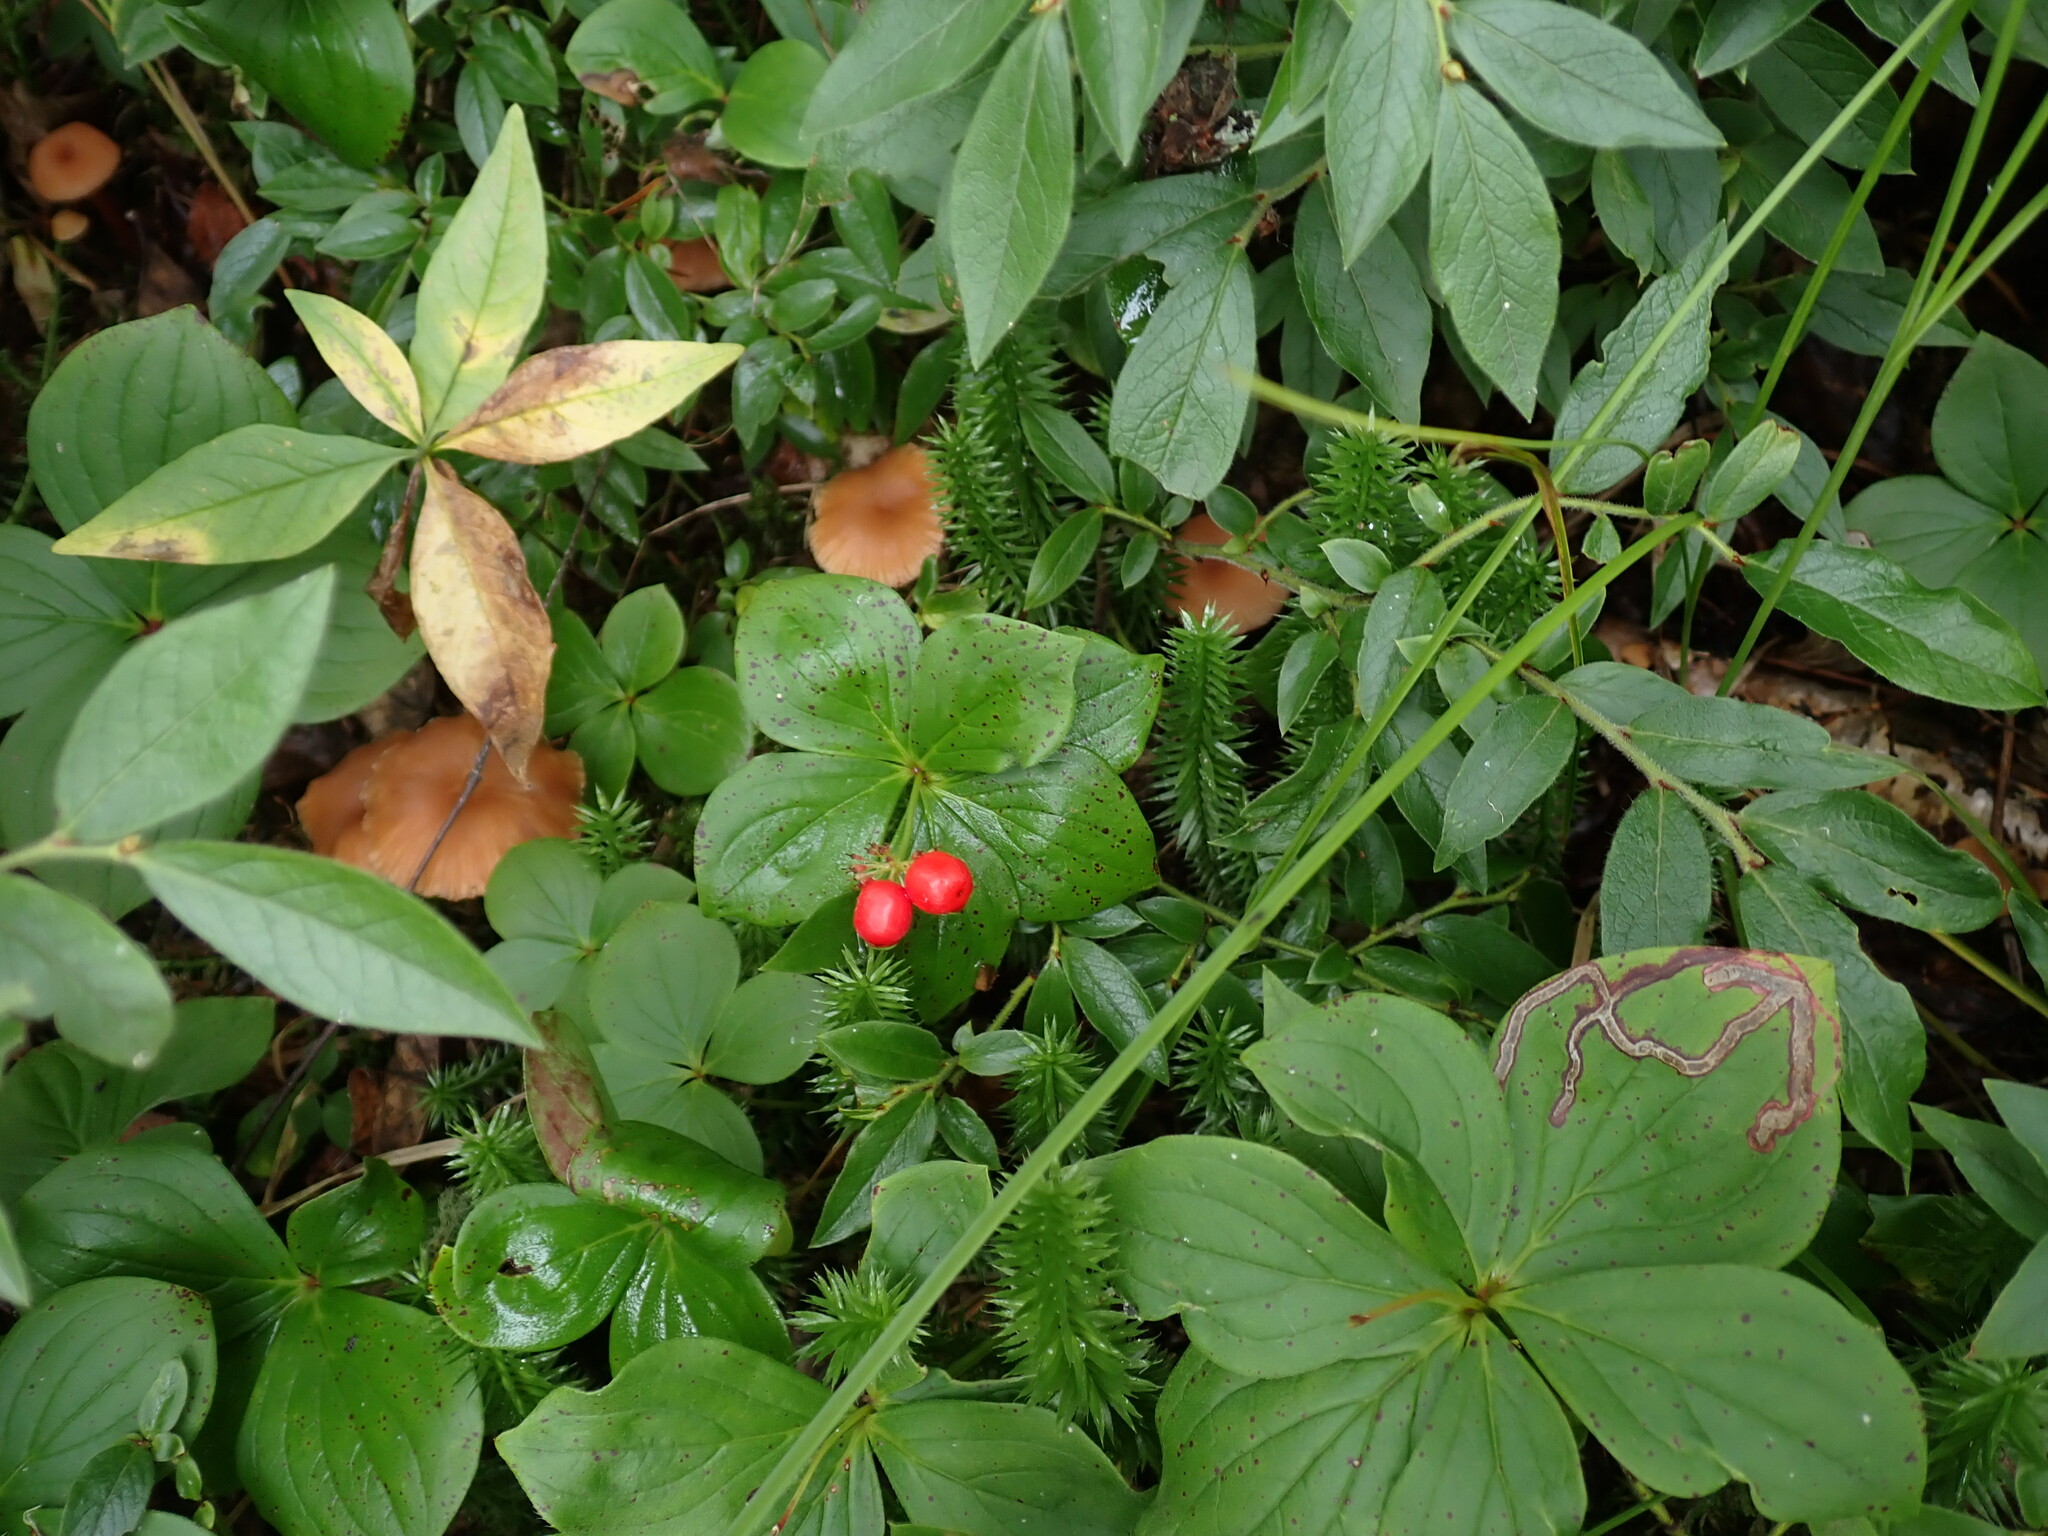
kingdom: Plantae
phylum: Tracheophyta
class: Magnoliopsida
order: Cornales
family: Cornaceae
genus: Cornus
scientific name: Cornus canadensis
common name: Creeping dogwood
